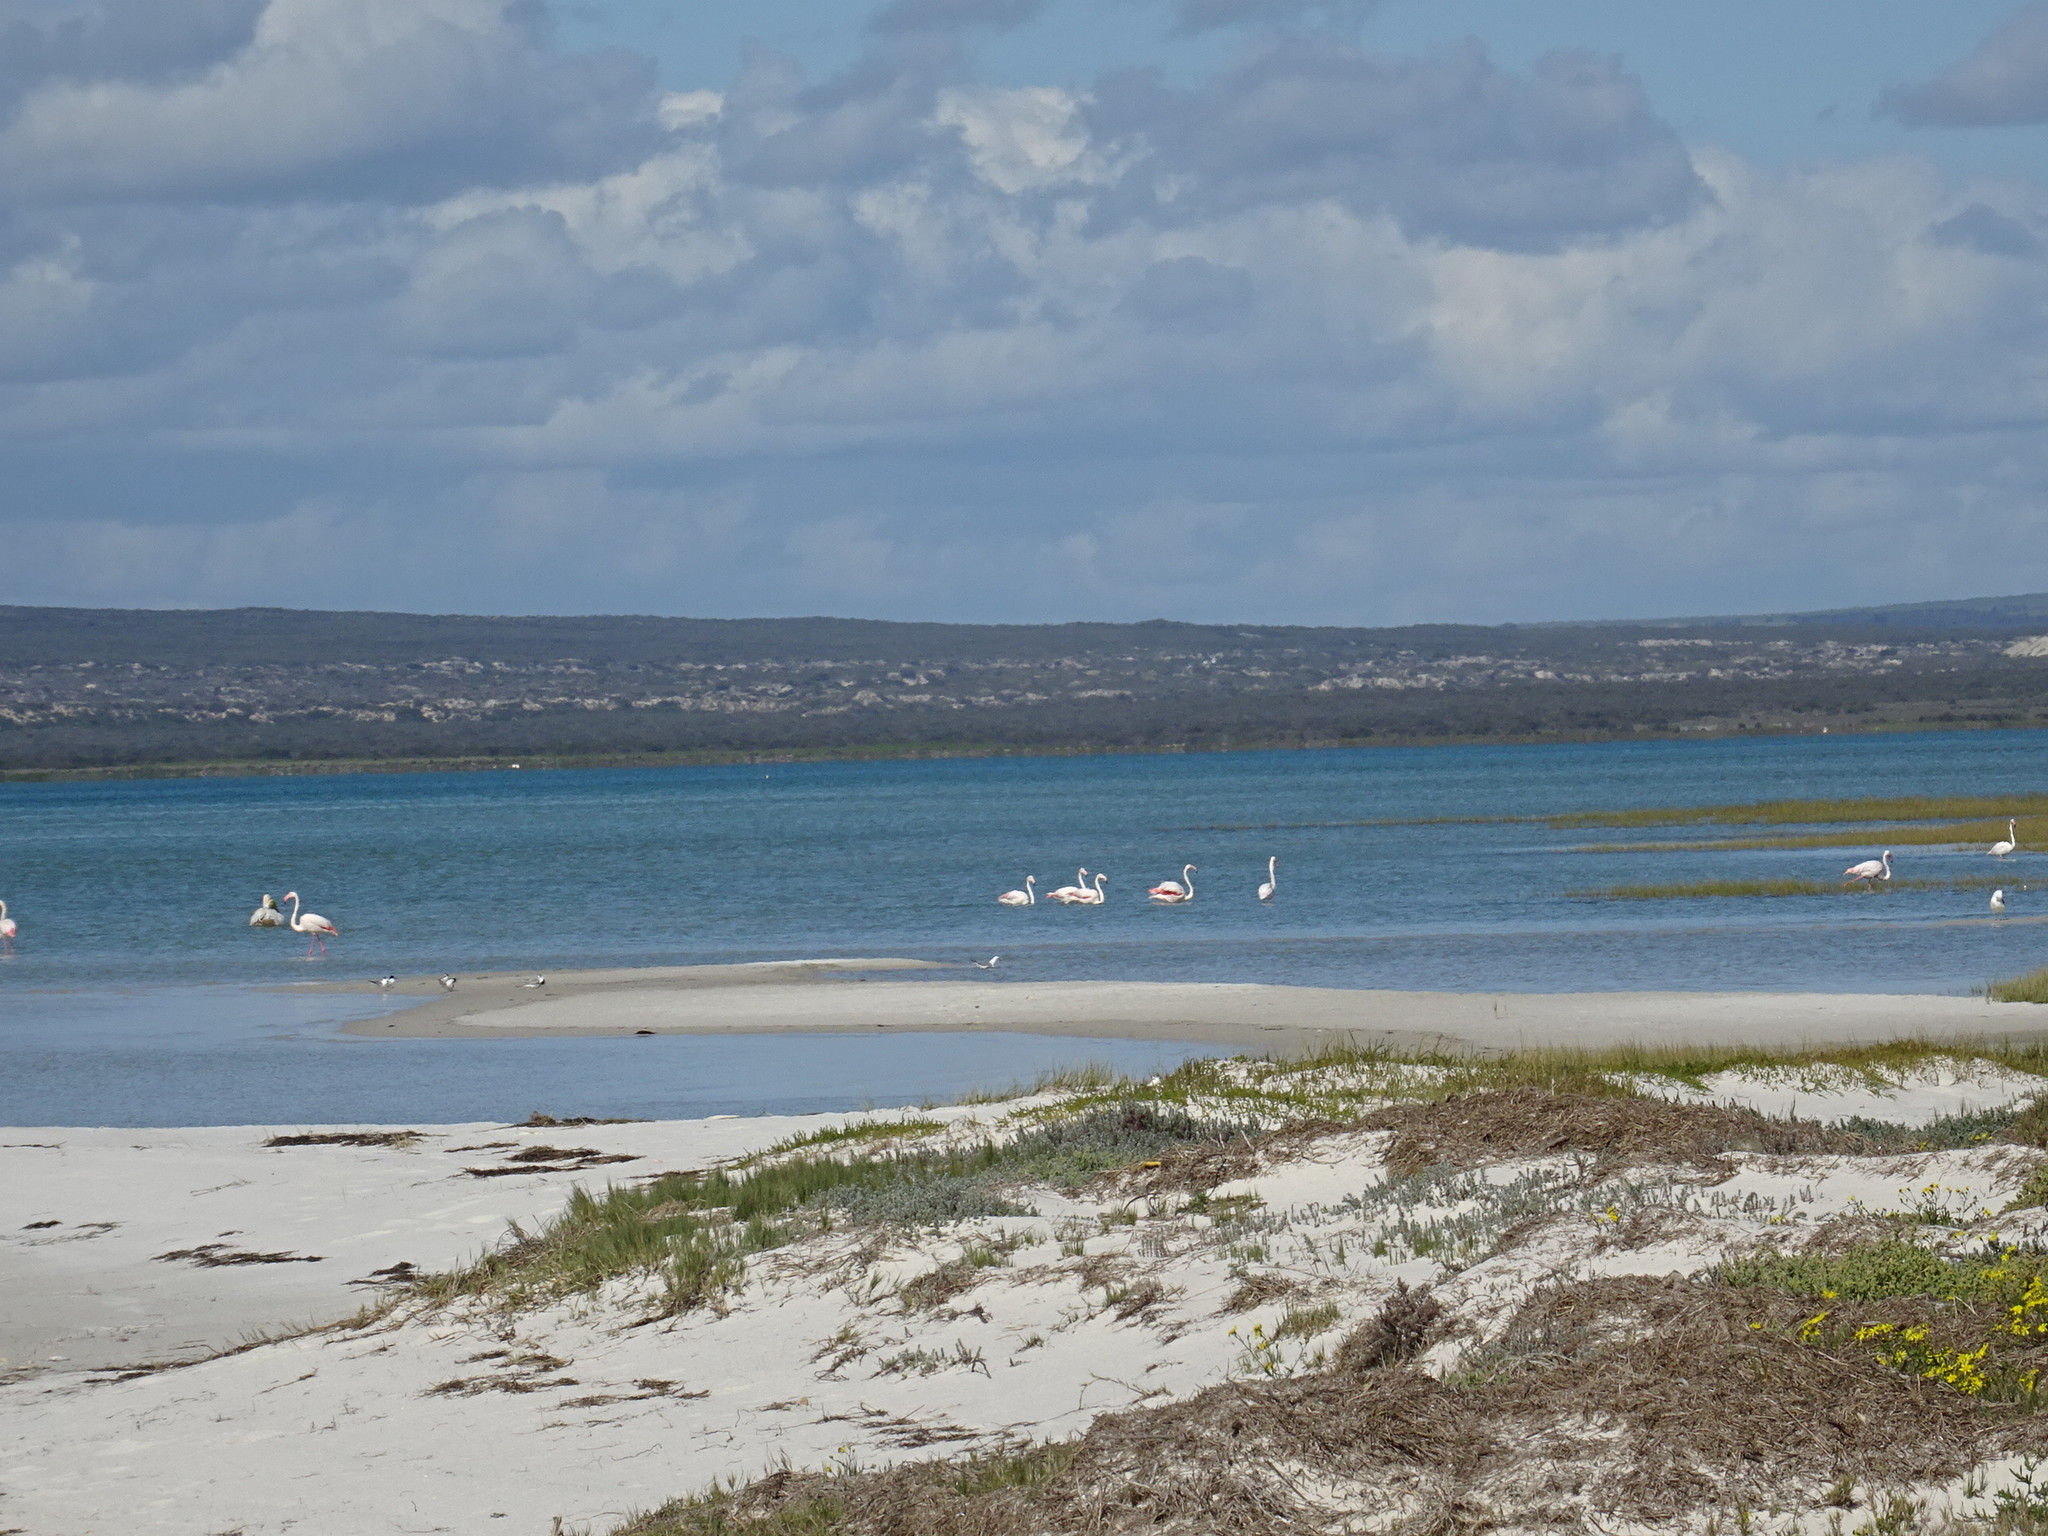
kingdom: Animalia
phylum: Chordata
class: Aves
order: Phoenicopteriformes
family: Phoenicopteridae
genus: Phoenicopterus
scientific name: Phoenicopterus roseus
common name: Greater flamingo
